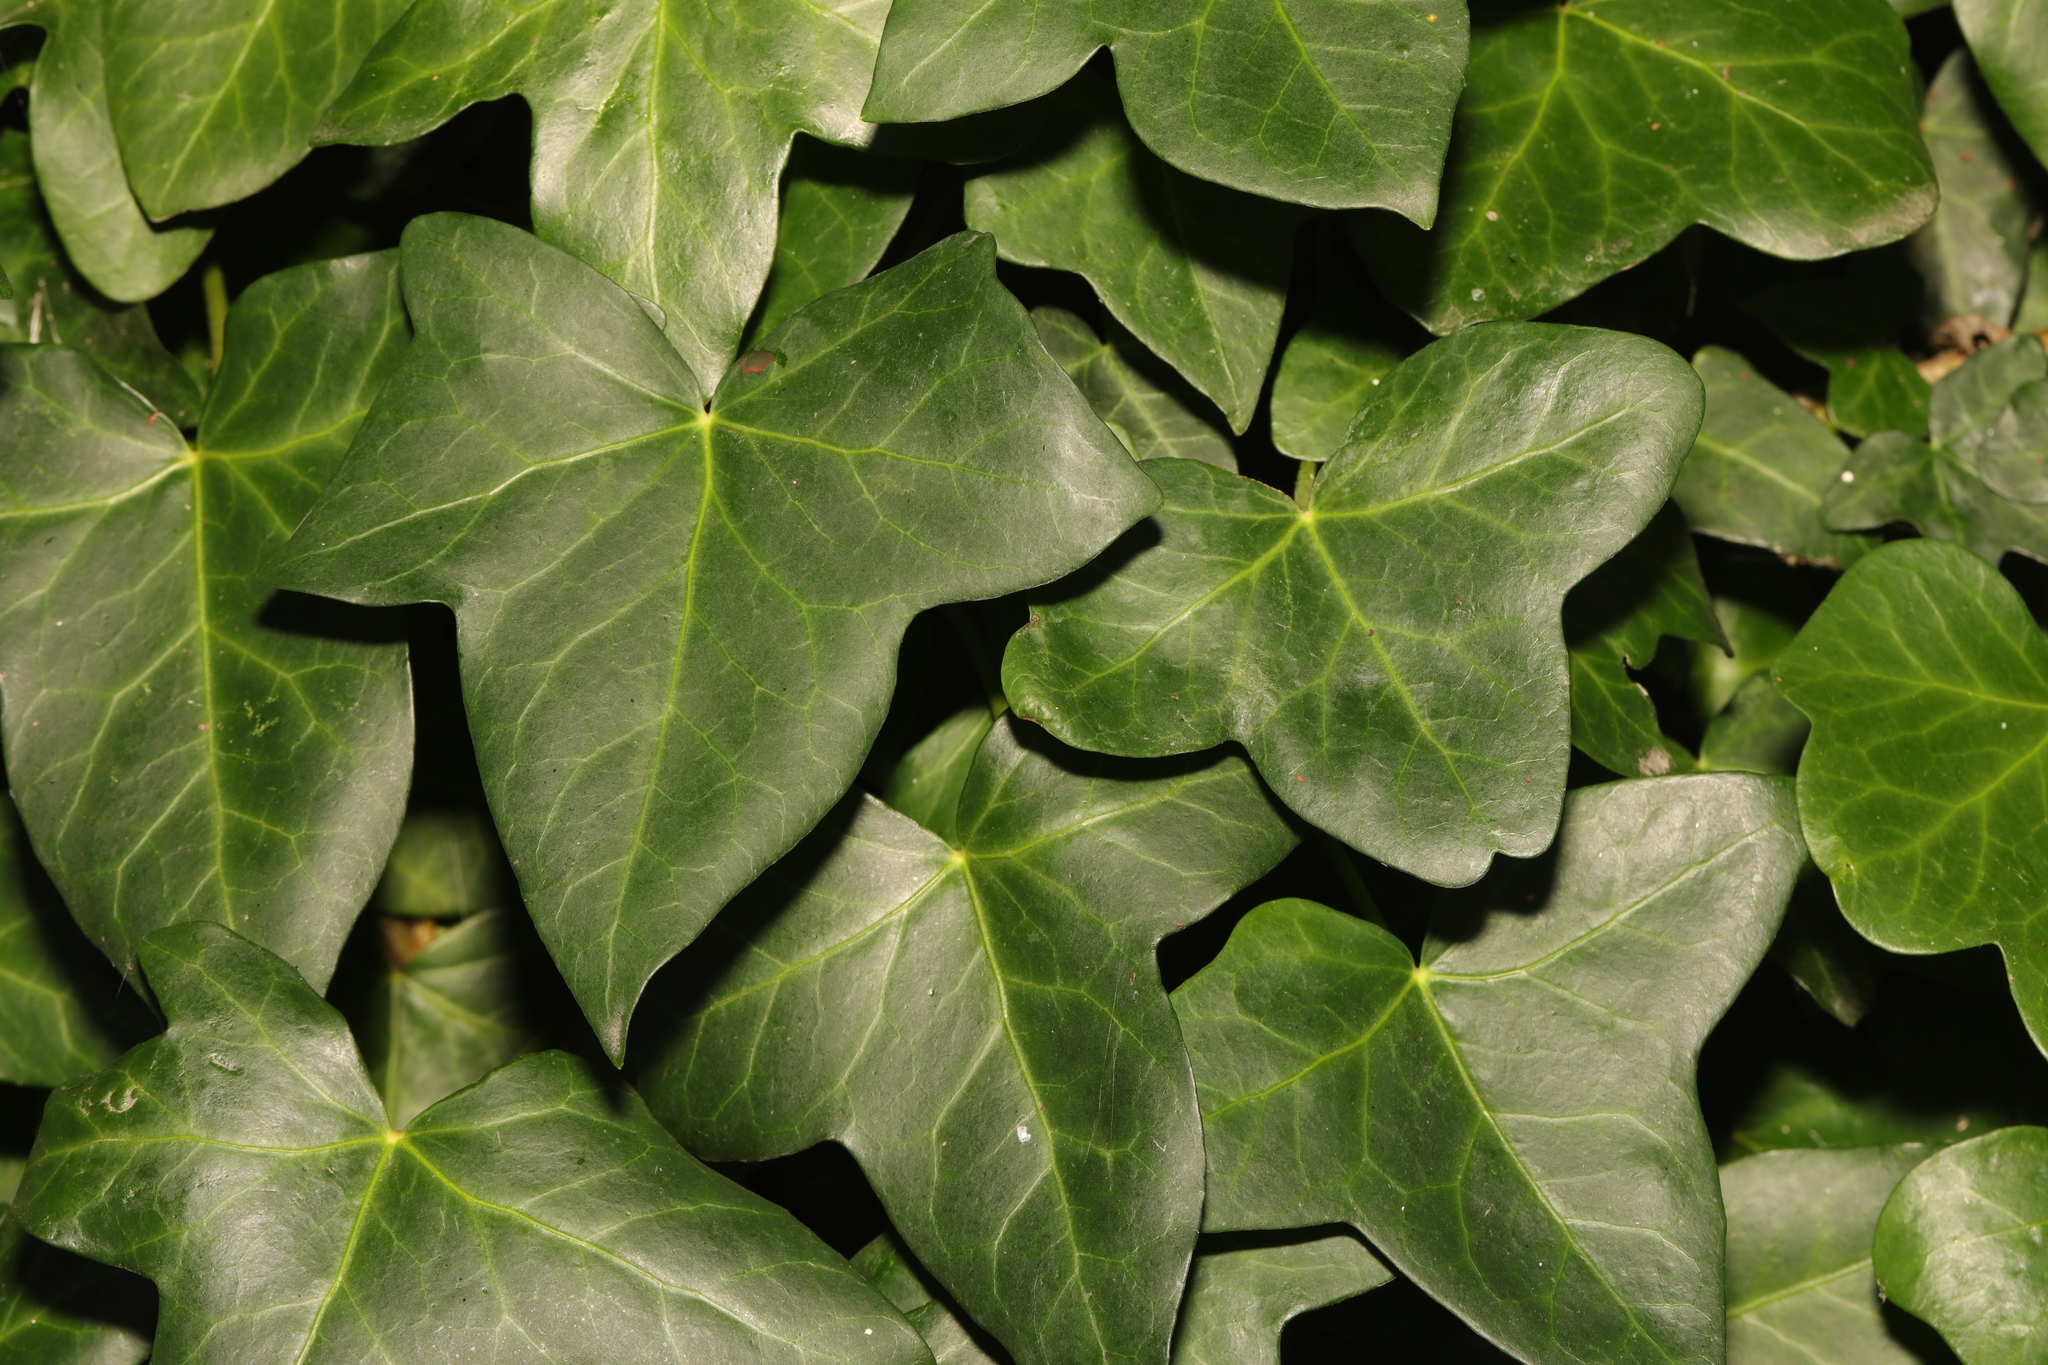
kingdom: Plantae
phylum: Tracheophyta
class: Magnoliopsida
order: Apiales
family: Araliaceae
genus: Hedera
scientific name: Hedera helix
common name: Ivy
